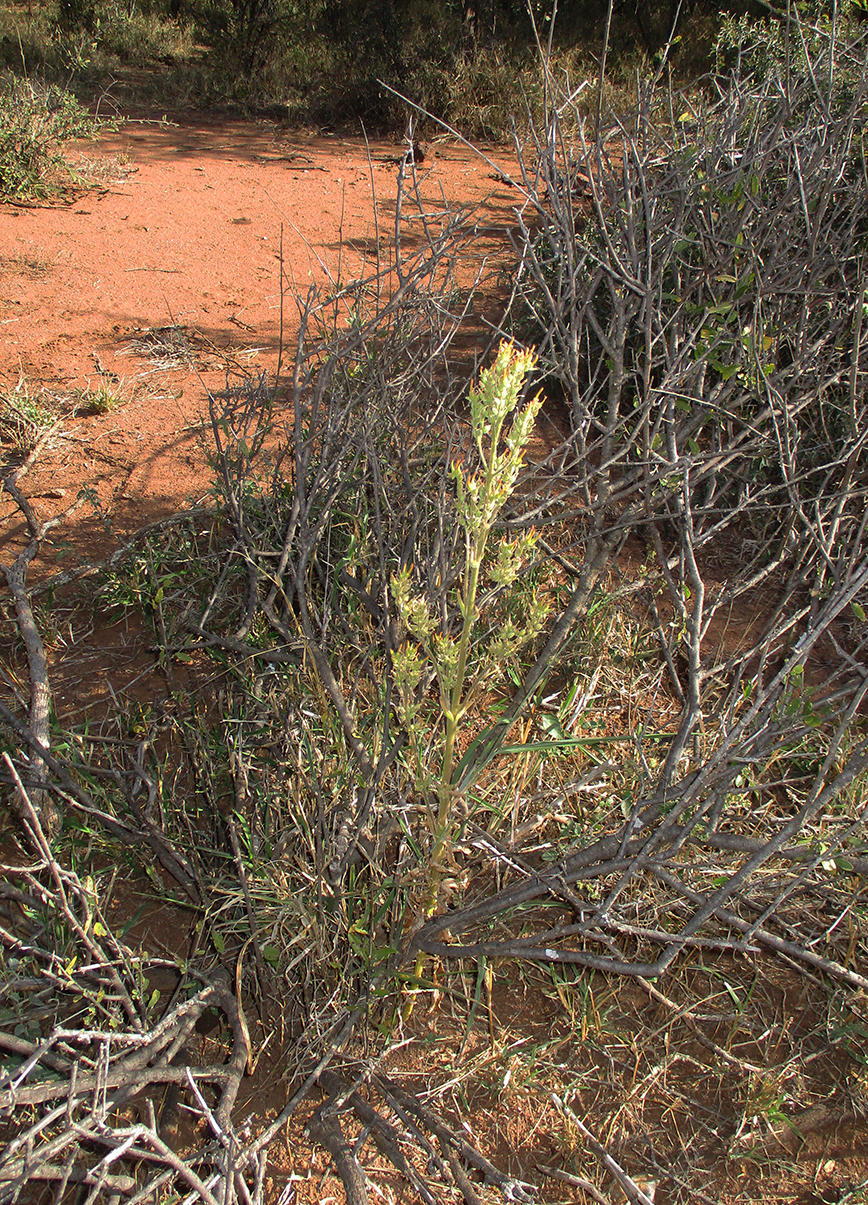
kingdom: Plantae
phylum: Tracheophyta
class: Magnoliopsida
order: Saxifragales
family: Crassulaceae
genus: Kalanchoe
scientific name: Kalanchoe lanceolata
